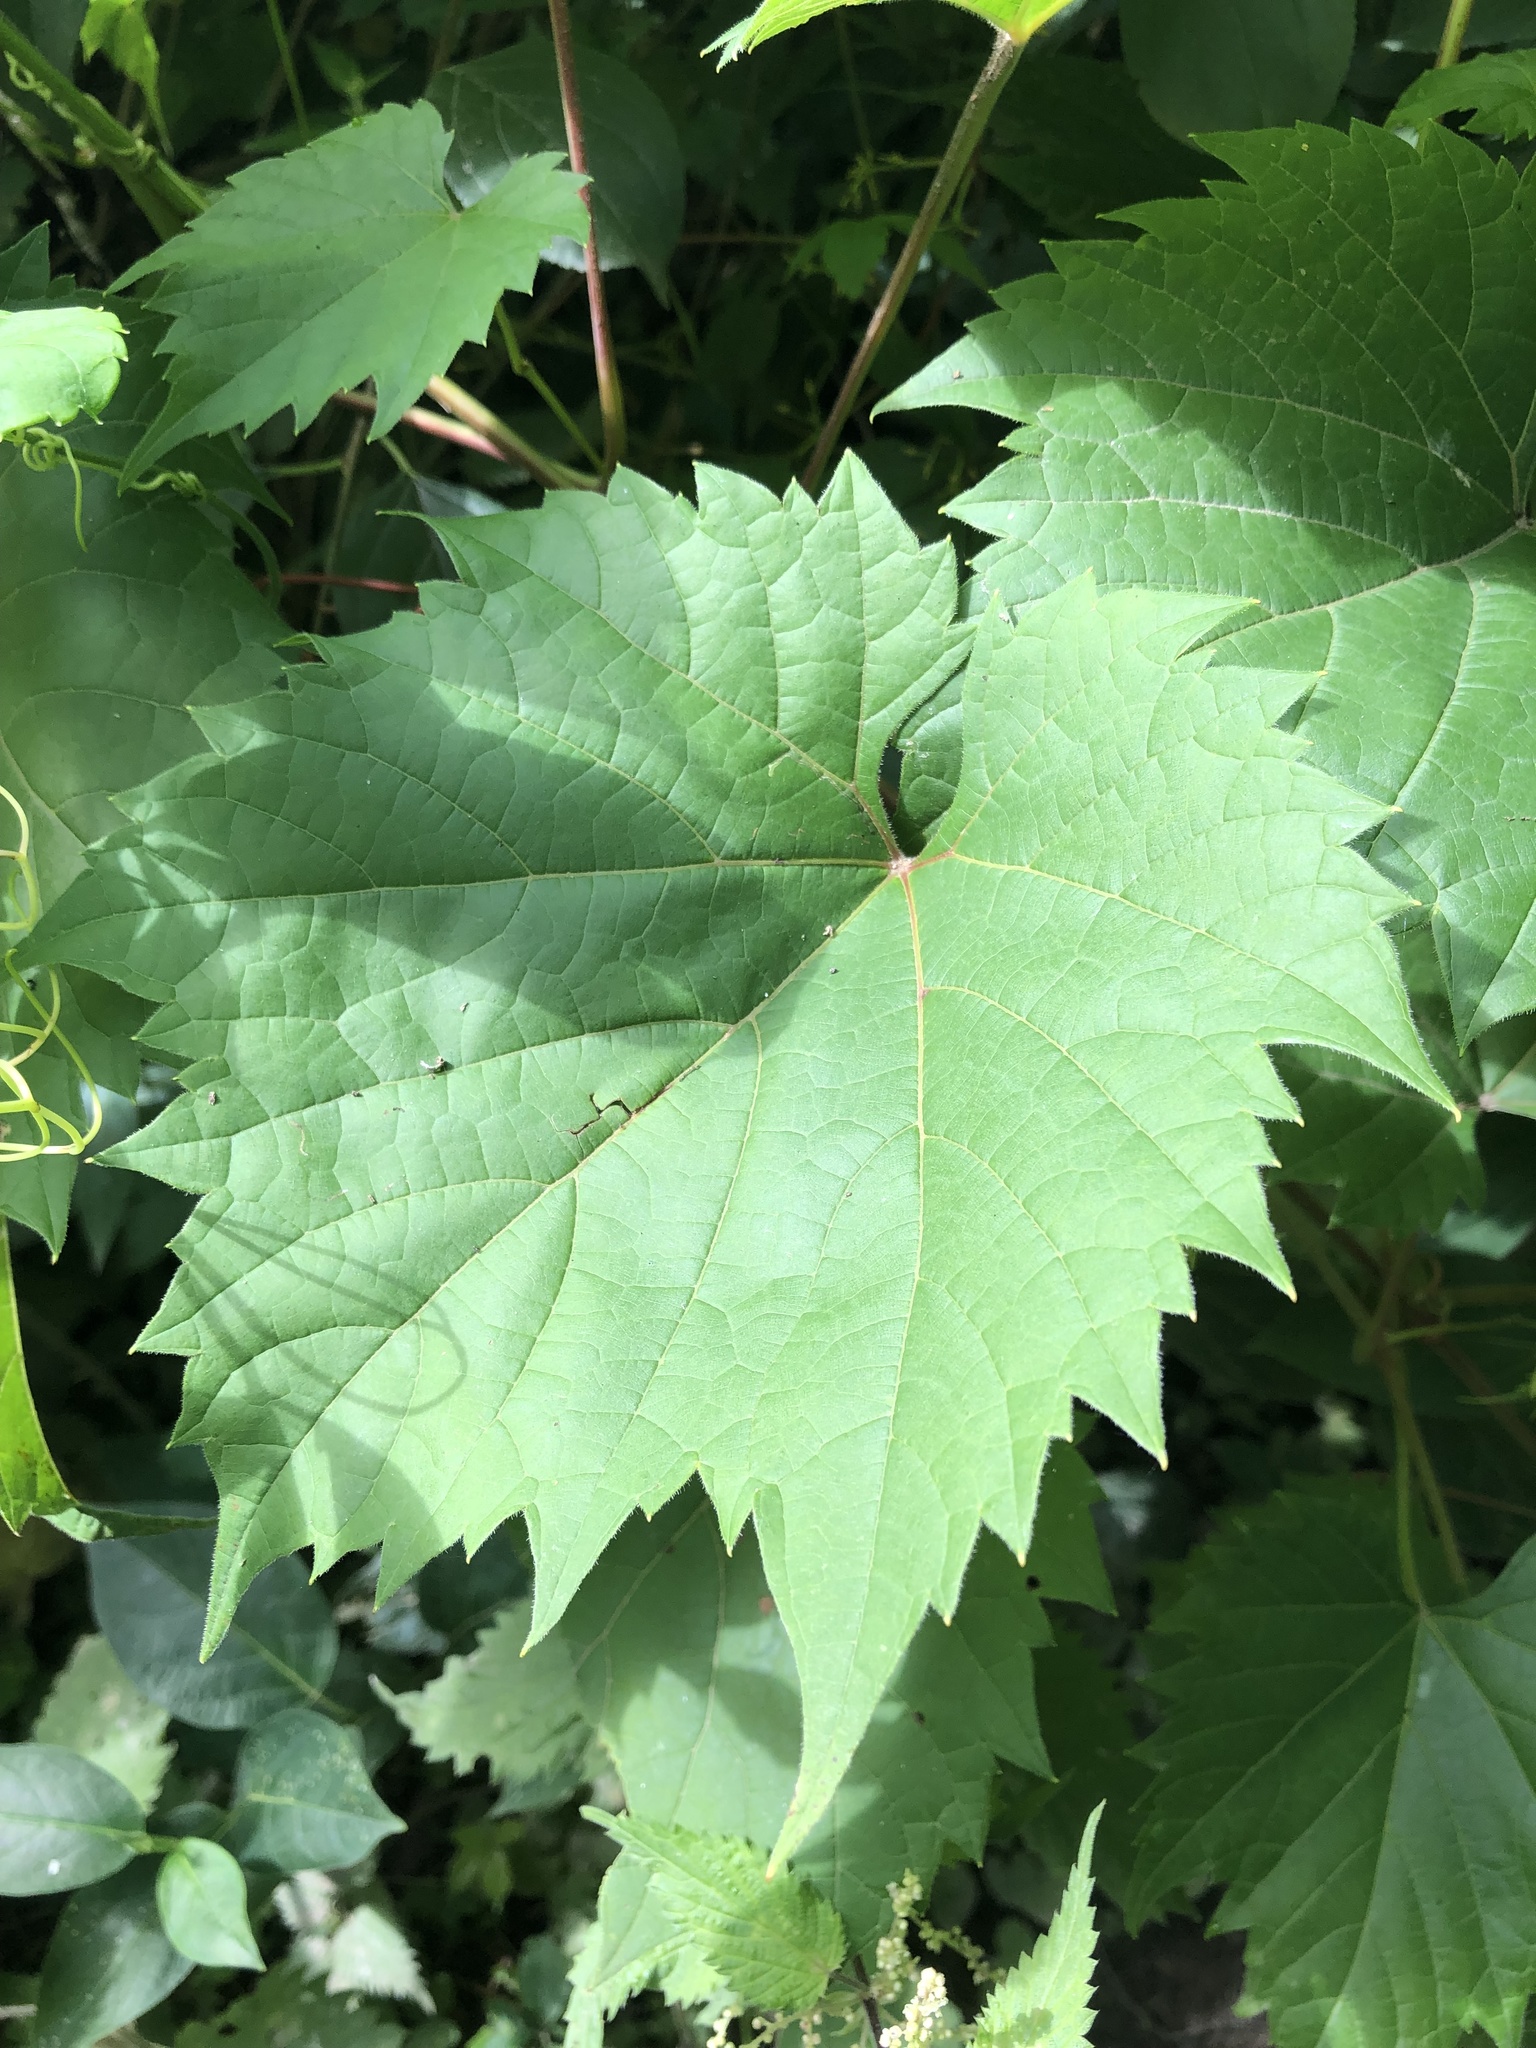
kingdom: Plantae
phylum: Tracheophyta
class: Magnoliopsida
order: Vitales
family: Vitaceae
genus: Vitis
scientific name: Vitis riparia
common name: Frost grape
